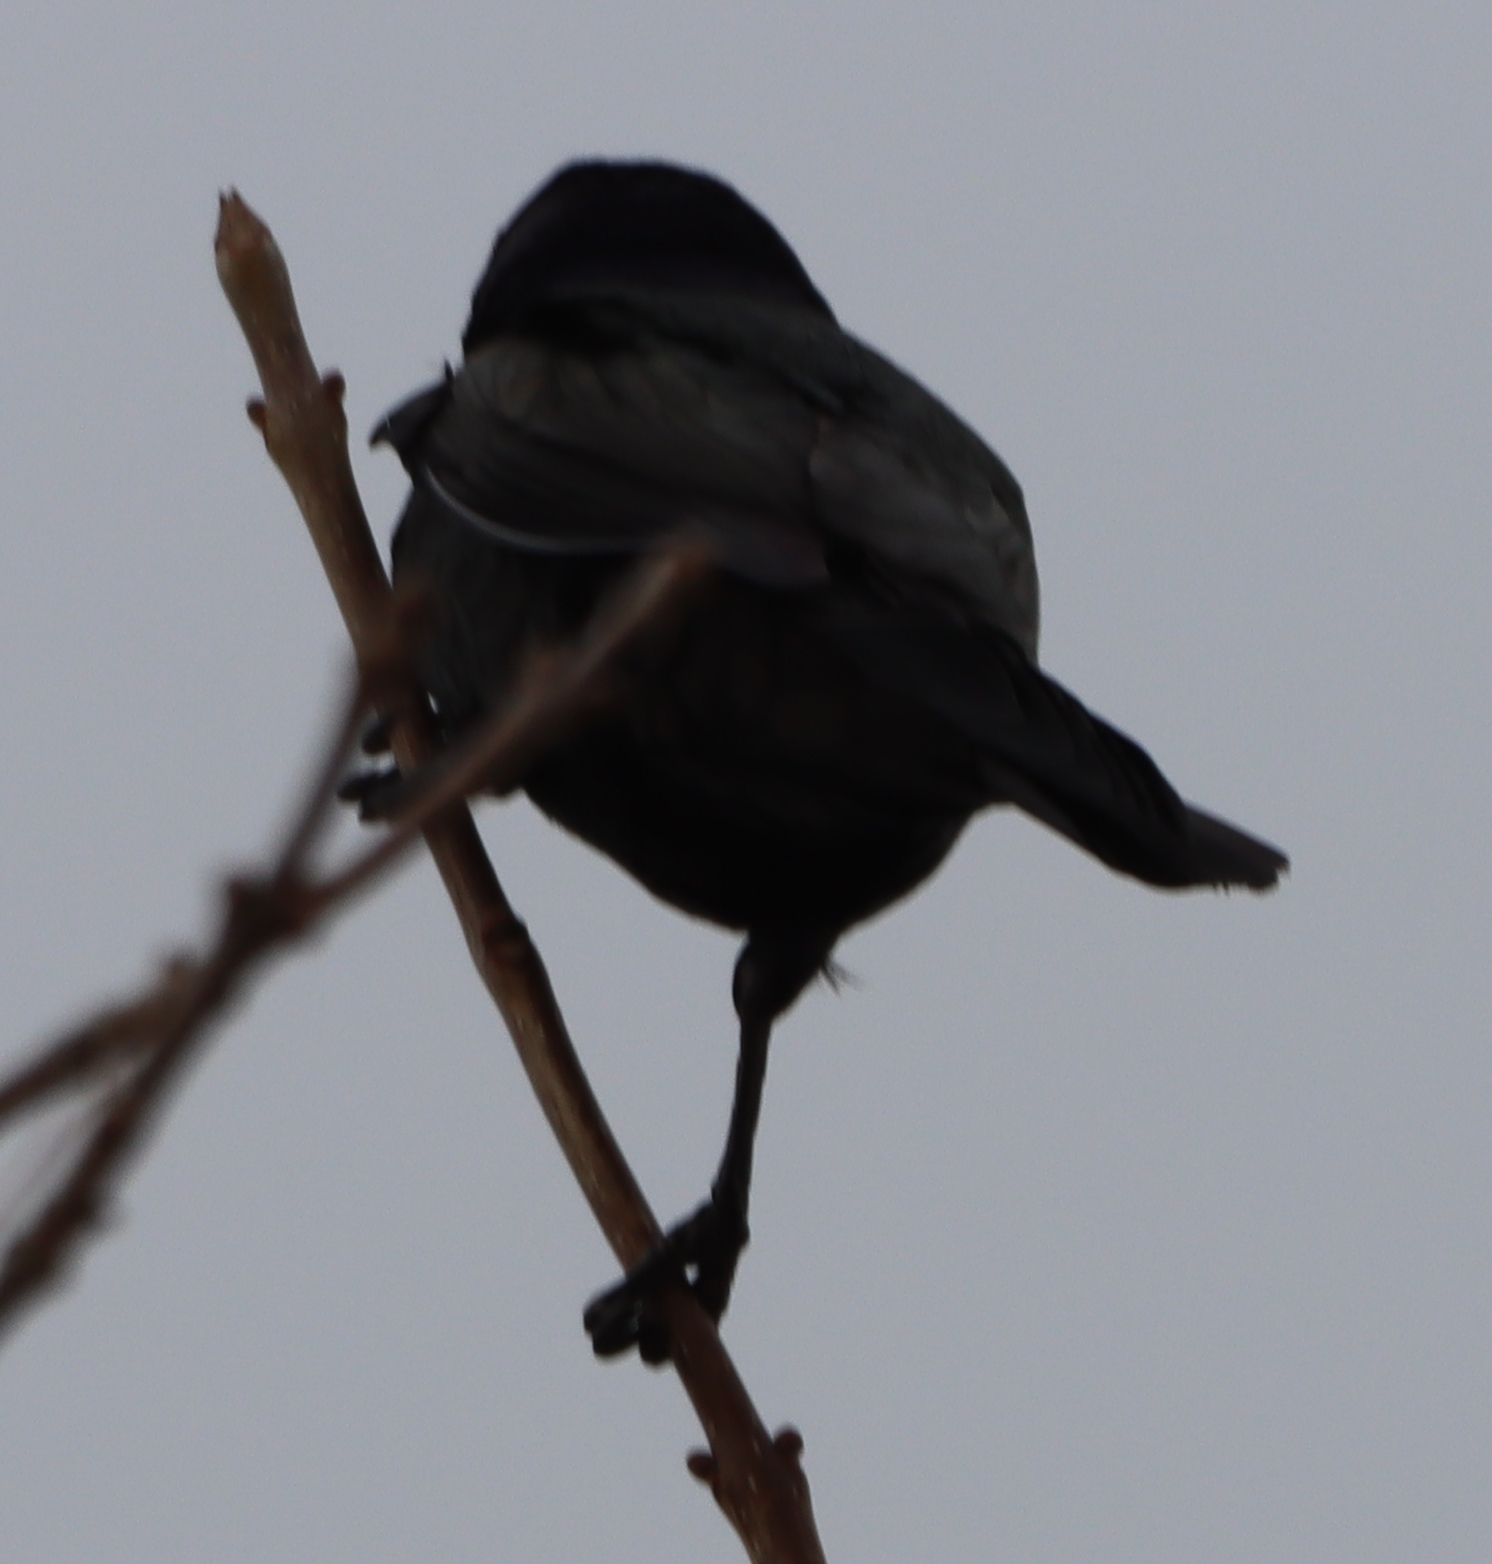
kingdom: Animalia
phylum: Chordata
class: Aves
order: Passeriformes
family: Icteridae
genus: Quiscalus
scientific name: Quiscalus quiscula
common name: Common grackle
